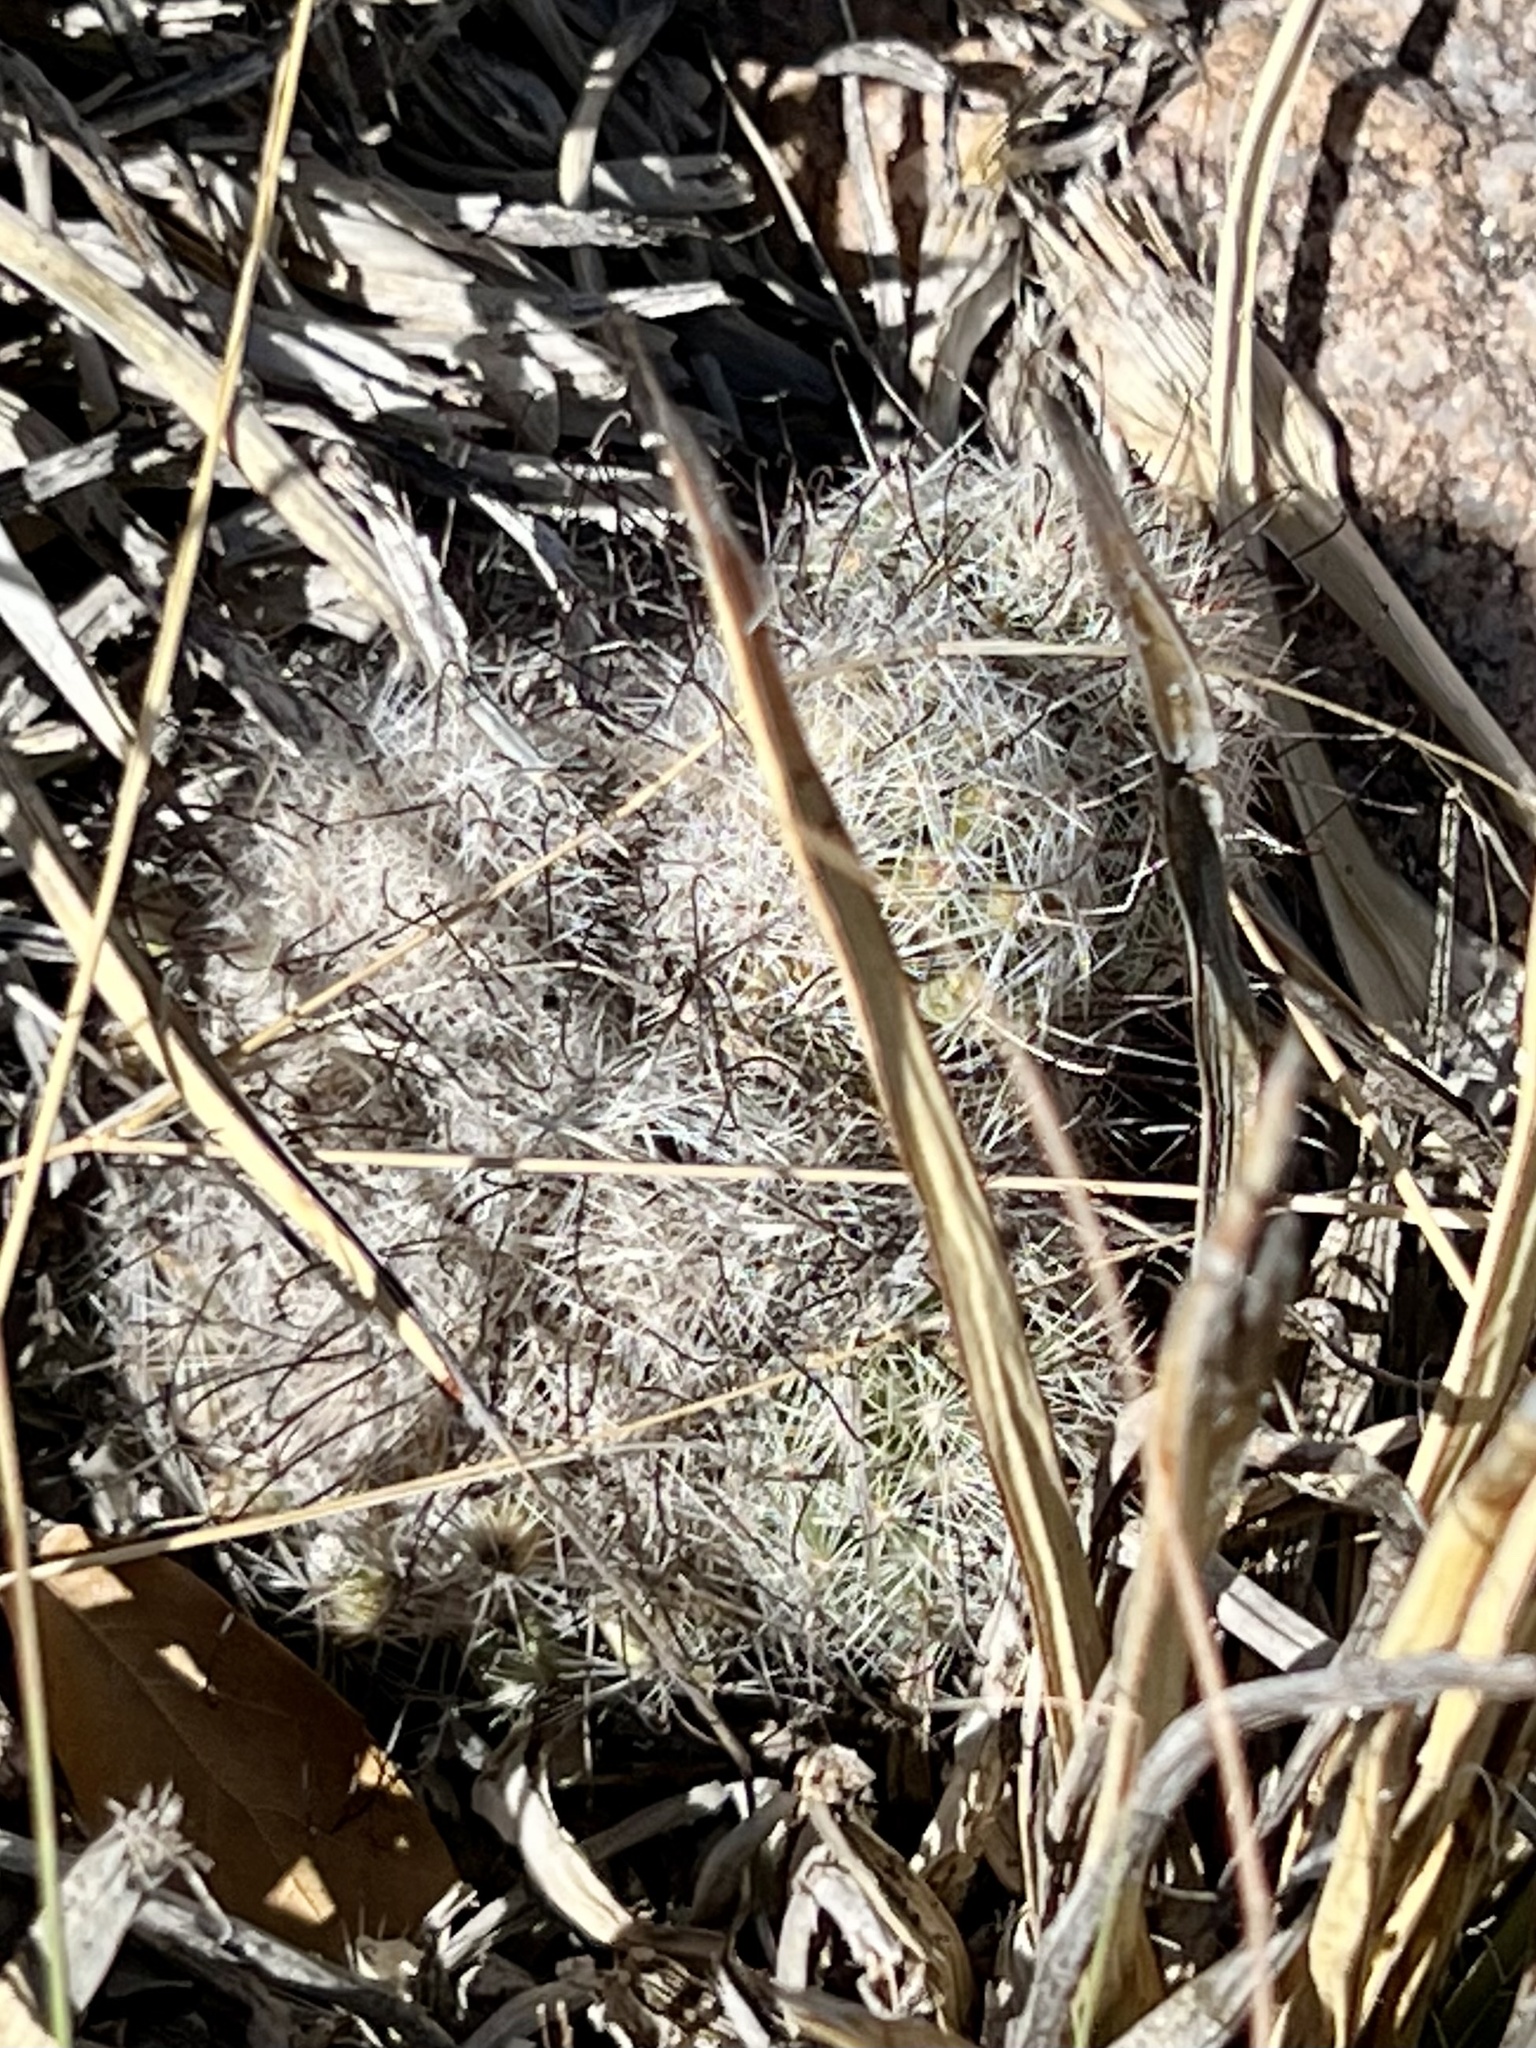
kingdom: Plantae
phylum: Tracheophyta
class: Magnoliopsida
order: Caryophyllales
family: Cactaceae
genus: Cochemiea
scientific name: Cochemiea grahamii
